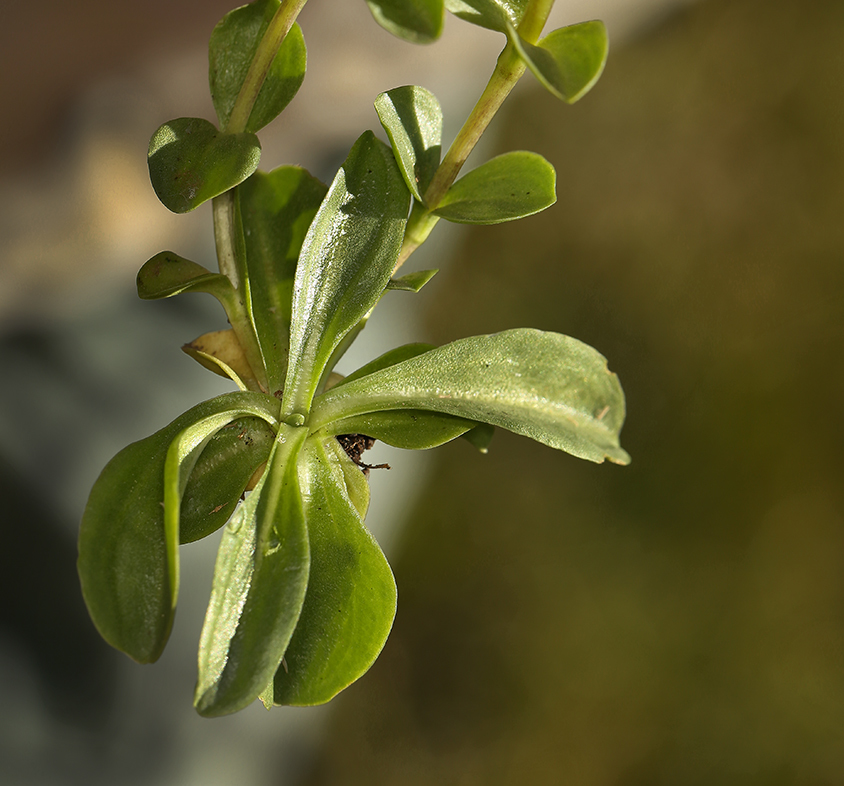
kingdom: Plantae
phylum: Tracheophyta
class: Magnoliopsida
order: Gentianales
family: Gentianaceae
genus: Gentiana
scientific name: Gentiana newberryi
